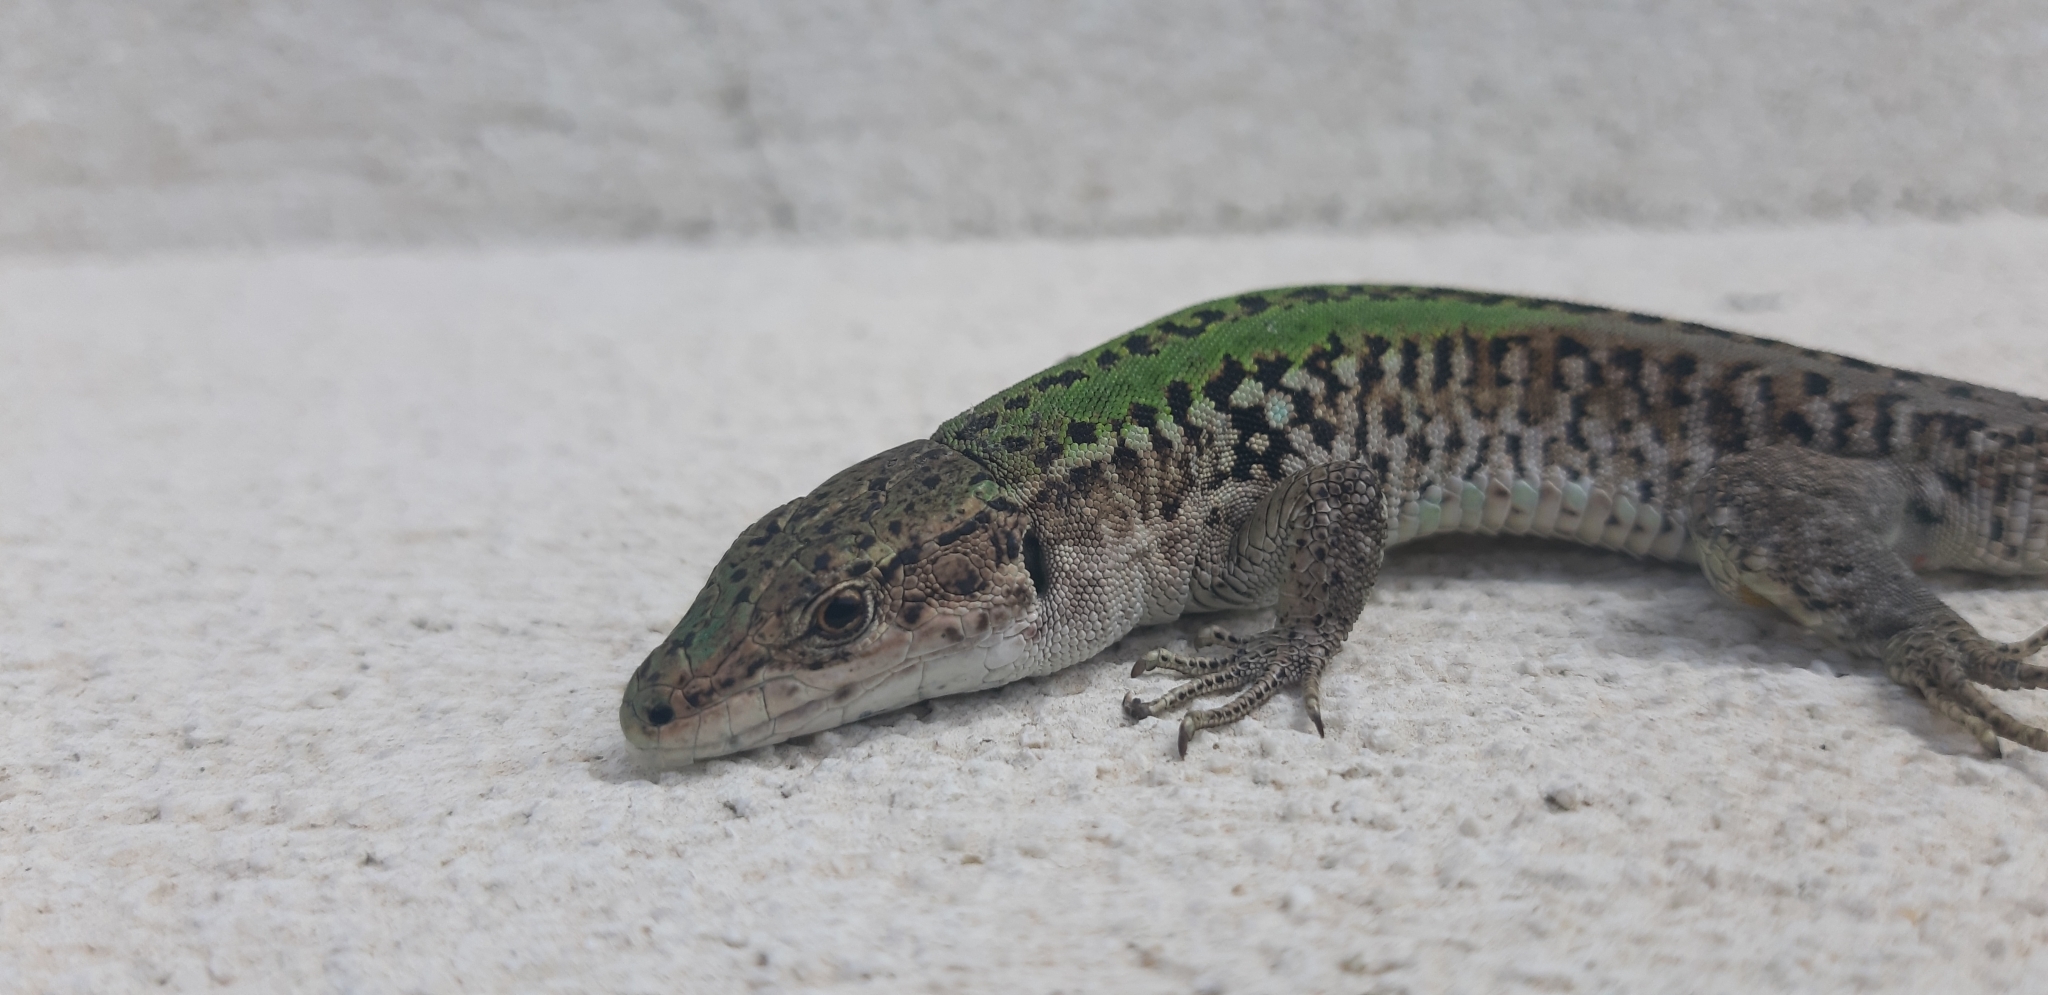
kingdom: Animalia
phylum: Chordata
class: Squamata
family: Lacertidae
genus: Podarcis
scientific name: Podarcis siculus
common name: Italian wall lizard
